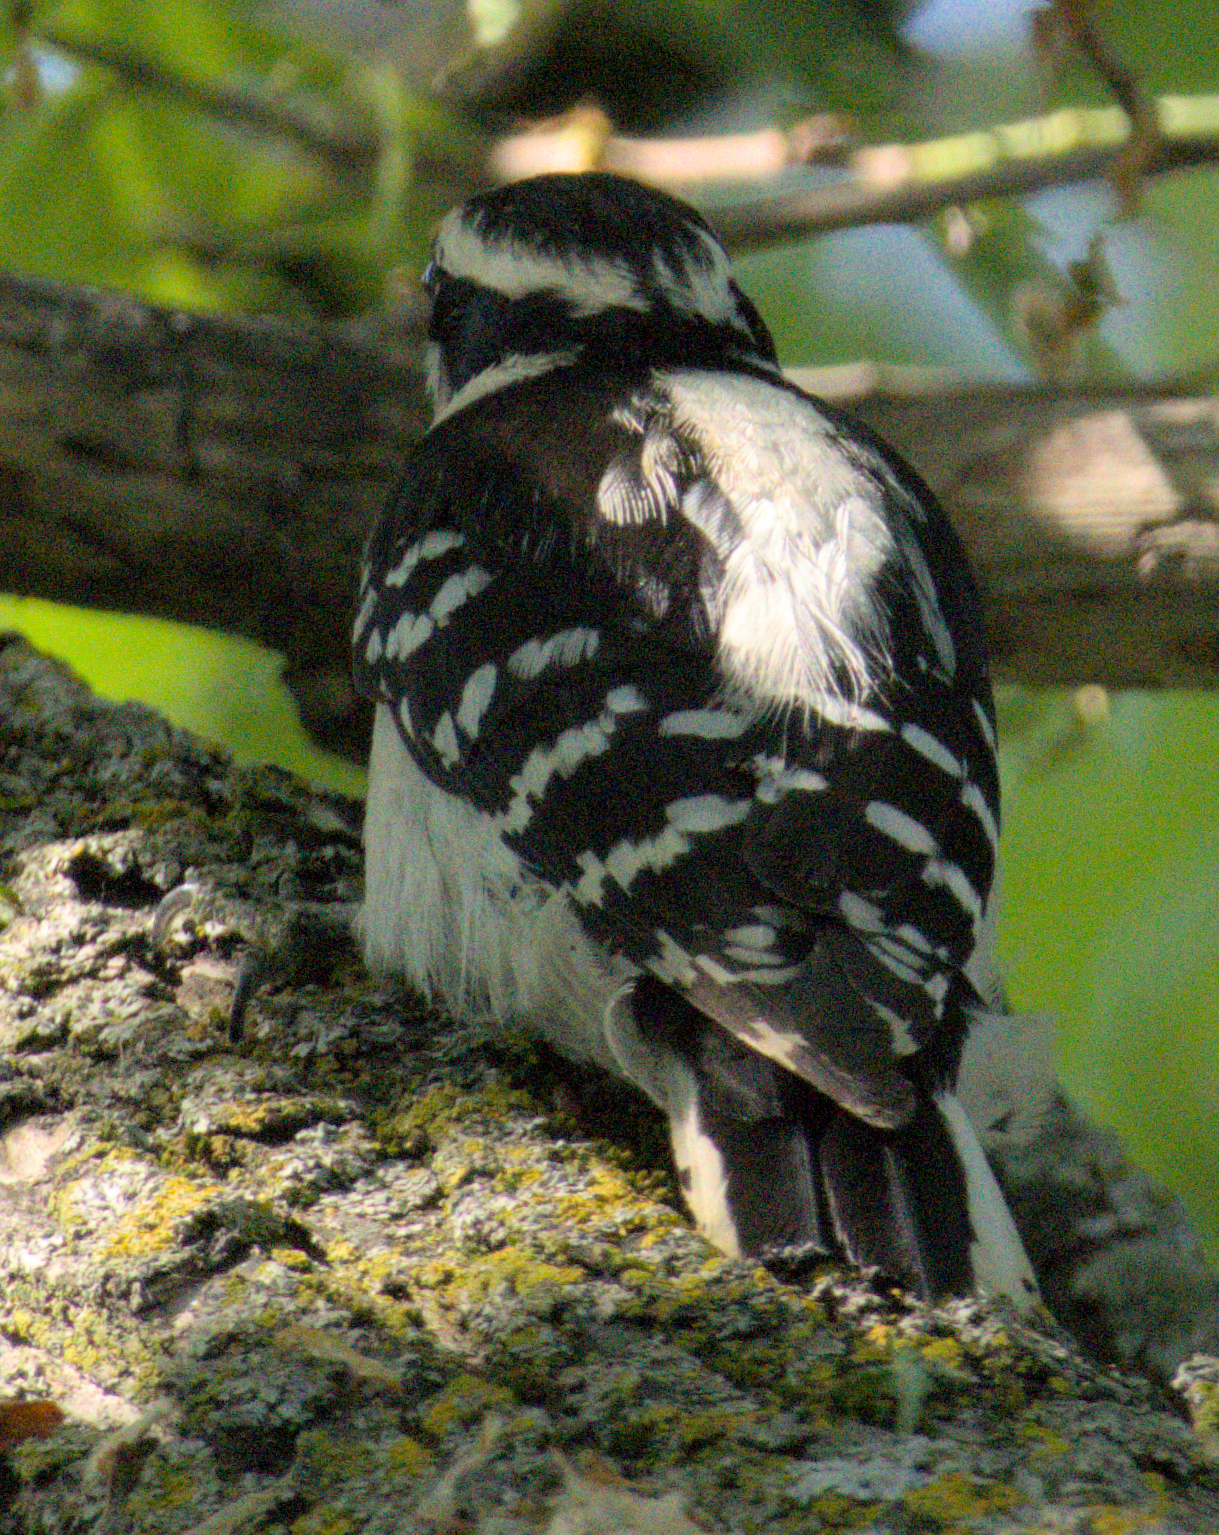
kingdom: Animalia
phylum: Chordata
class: Aves
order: Piciformes
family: Picidae
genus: Dryobates
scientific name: Dryobates pubescens
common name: Downy woodpecker
